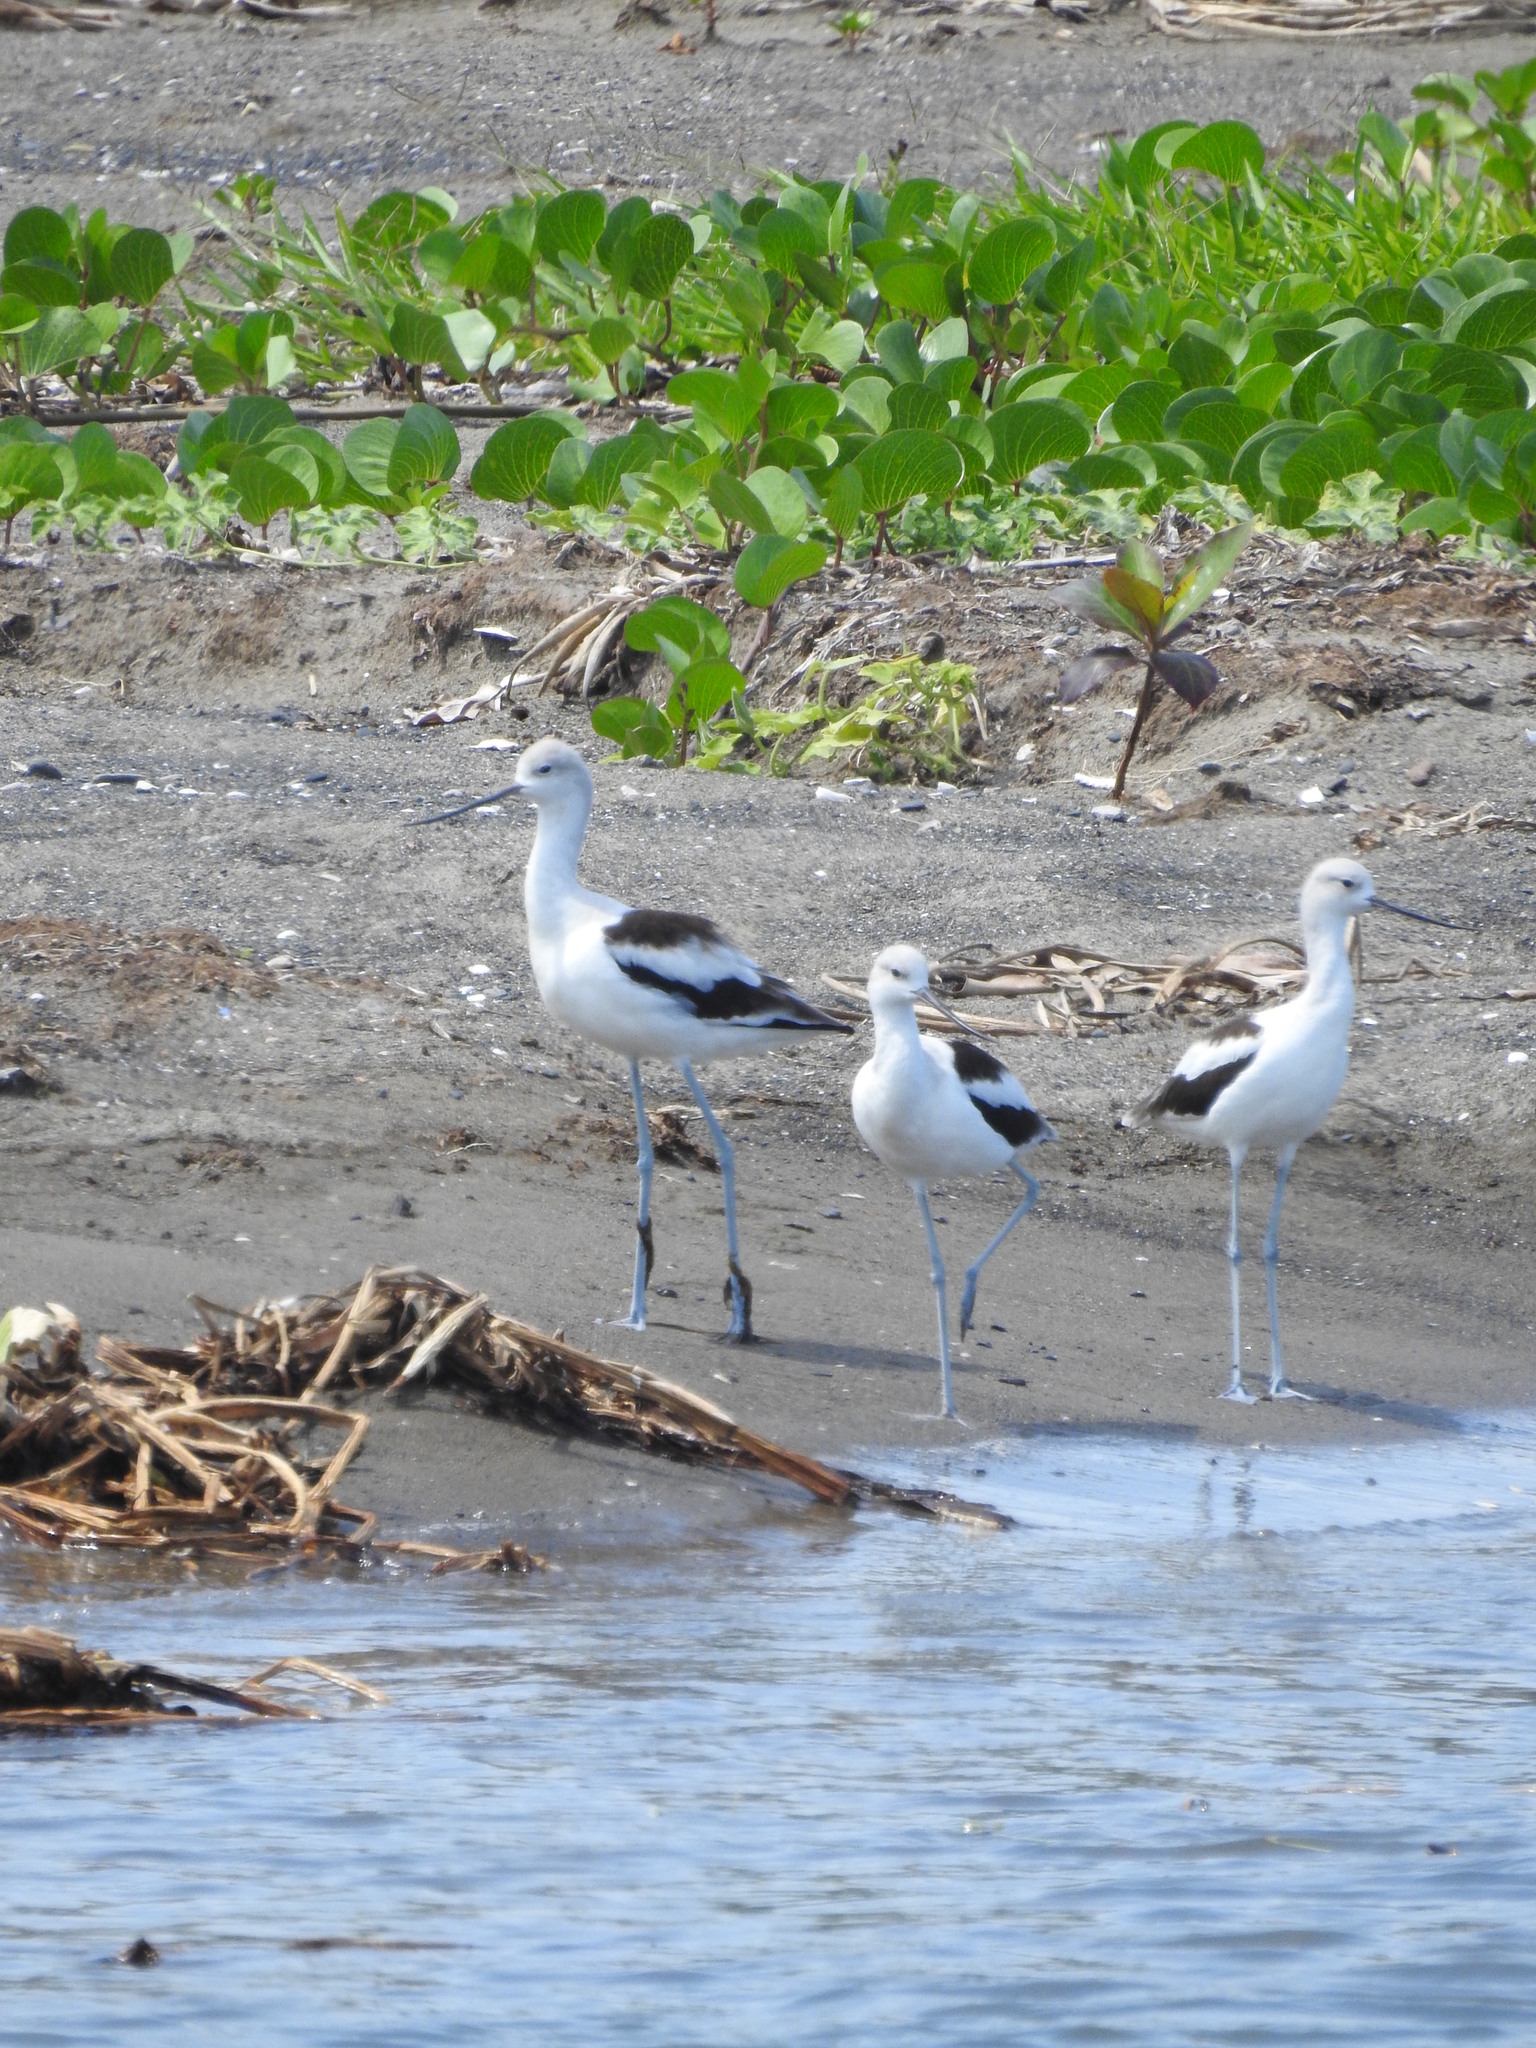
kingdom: Animalia
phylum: Chordata
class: Aves
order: Charadriiformes
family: Recurvirostridae
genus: Recurvirostra
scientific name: Recurvirostra americana
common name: American avocet
